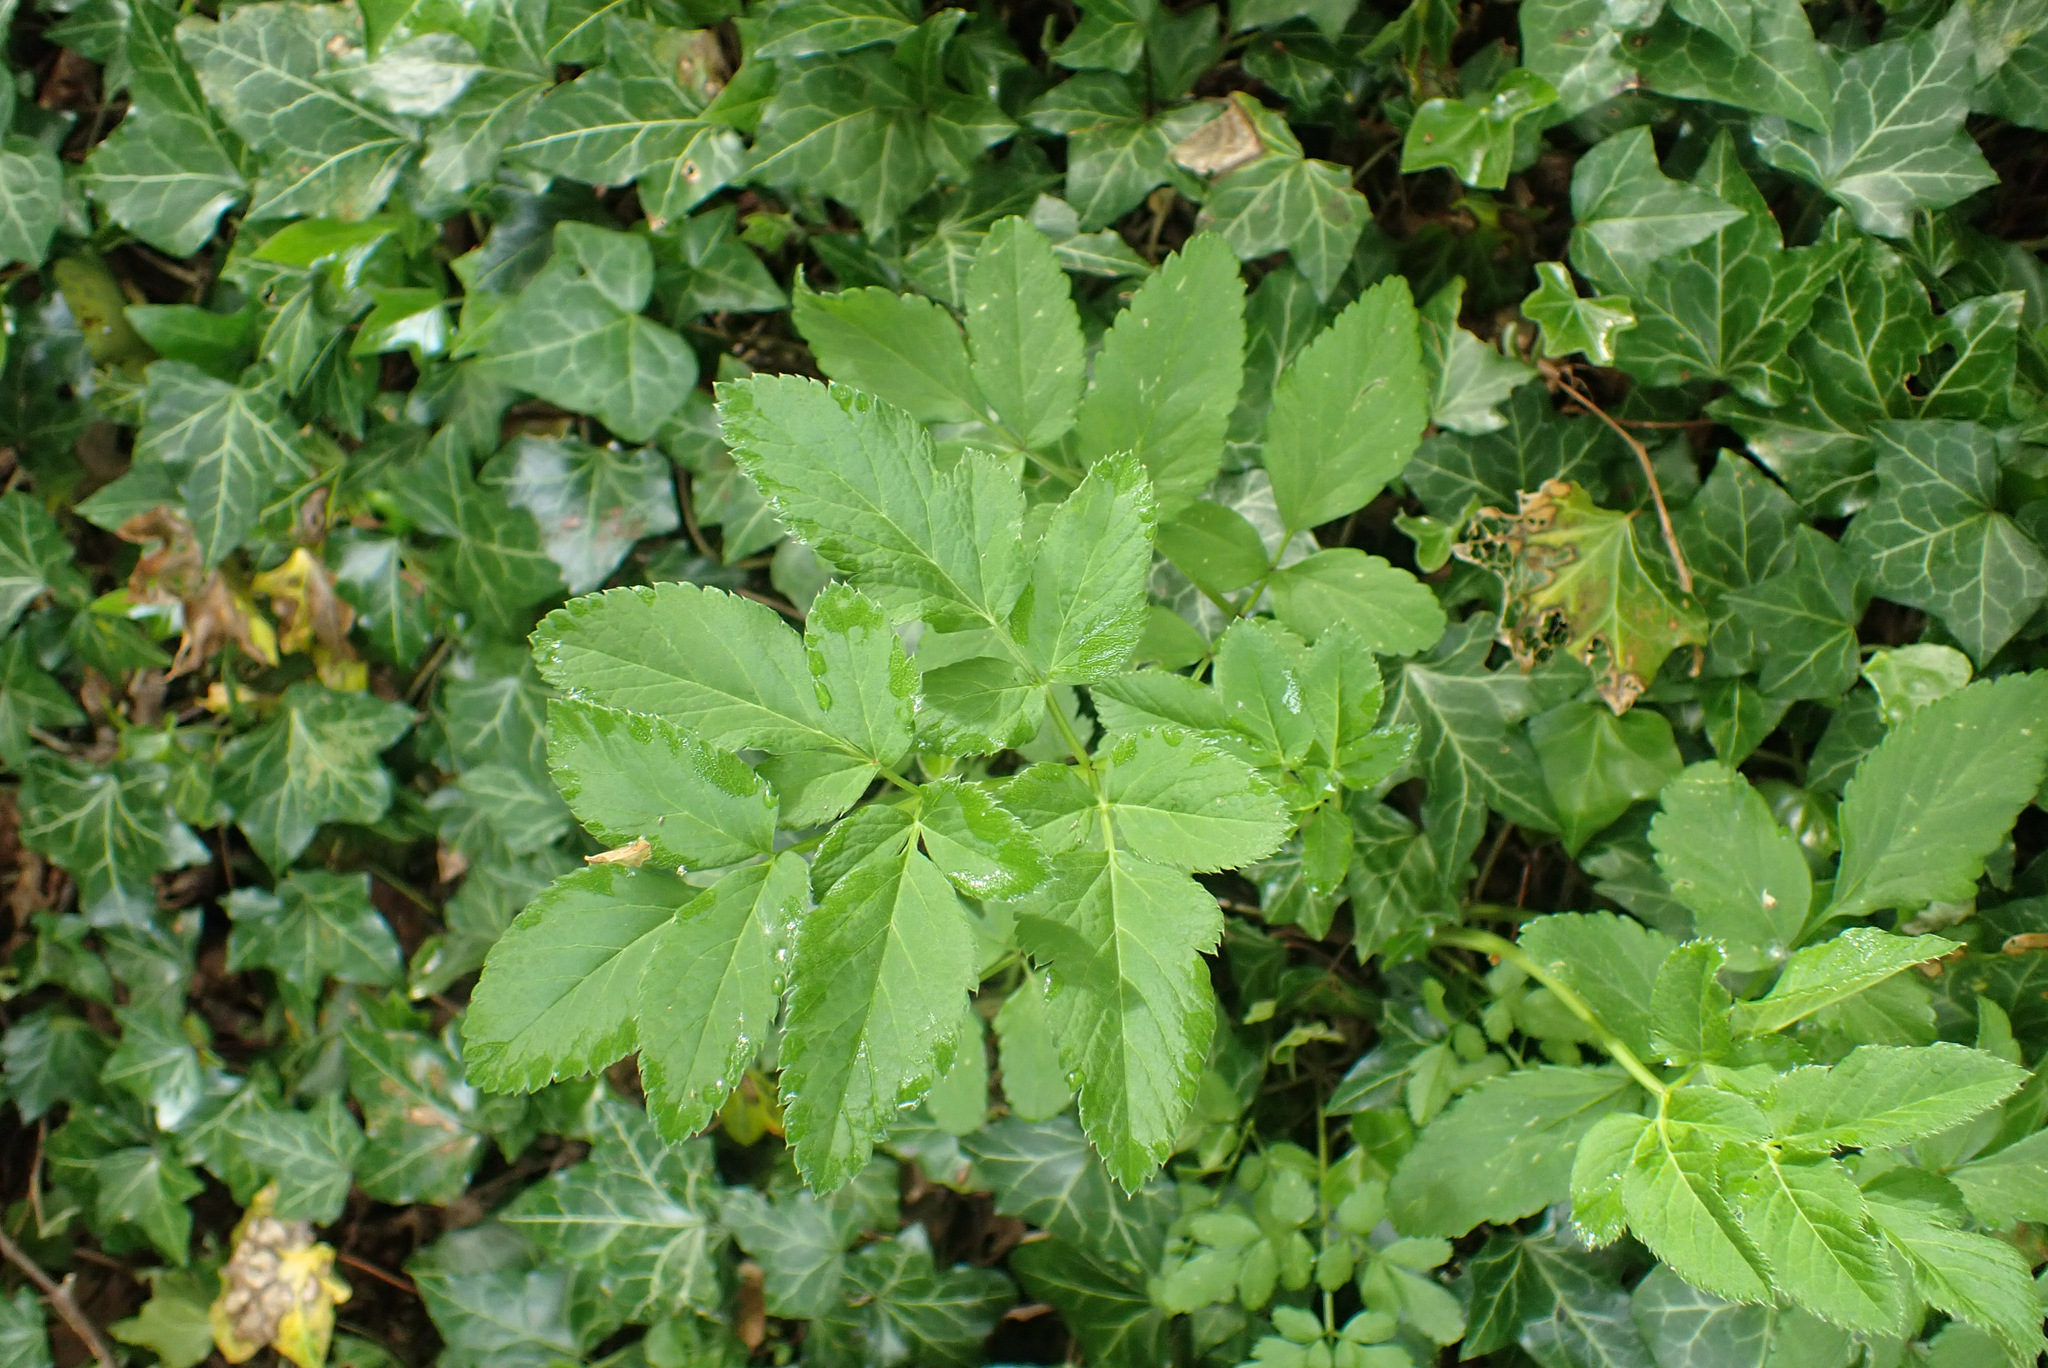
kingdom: Plantae
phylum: Tracheophyta
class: Magnoliopsida
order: Apiales
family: Apiaceae
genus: Angelica
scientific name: Angelica sylvestris
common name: Wild angelica
